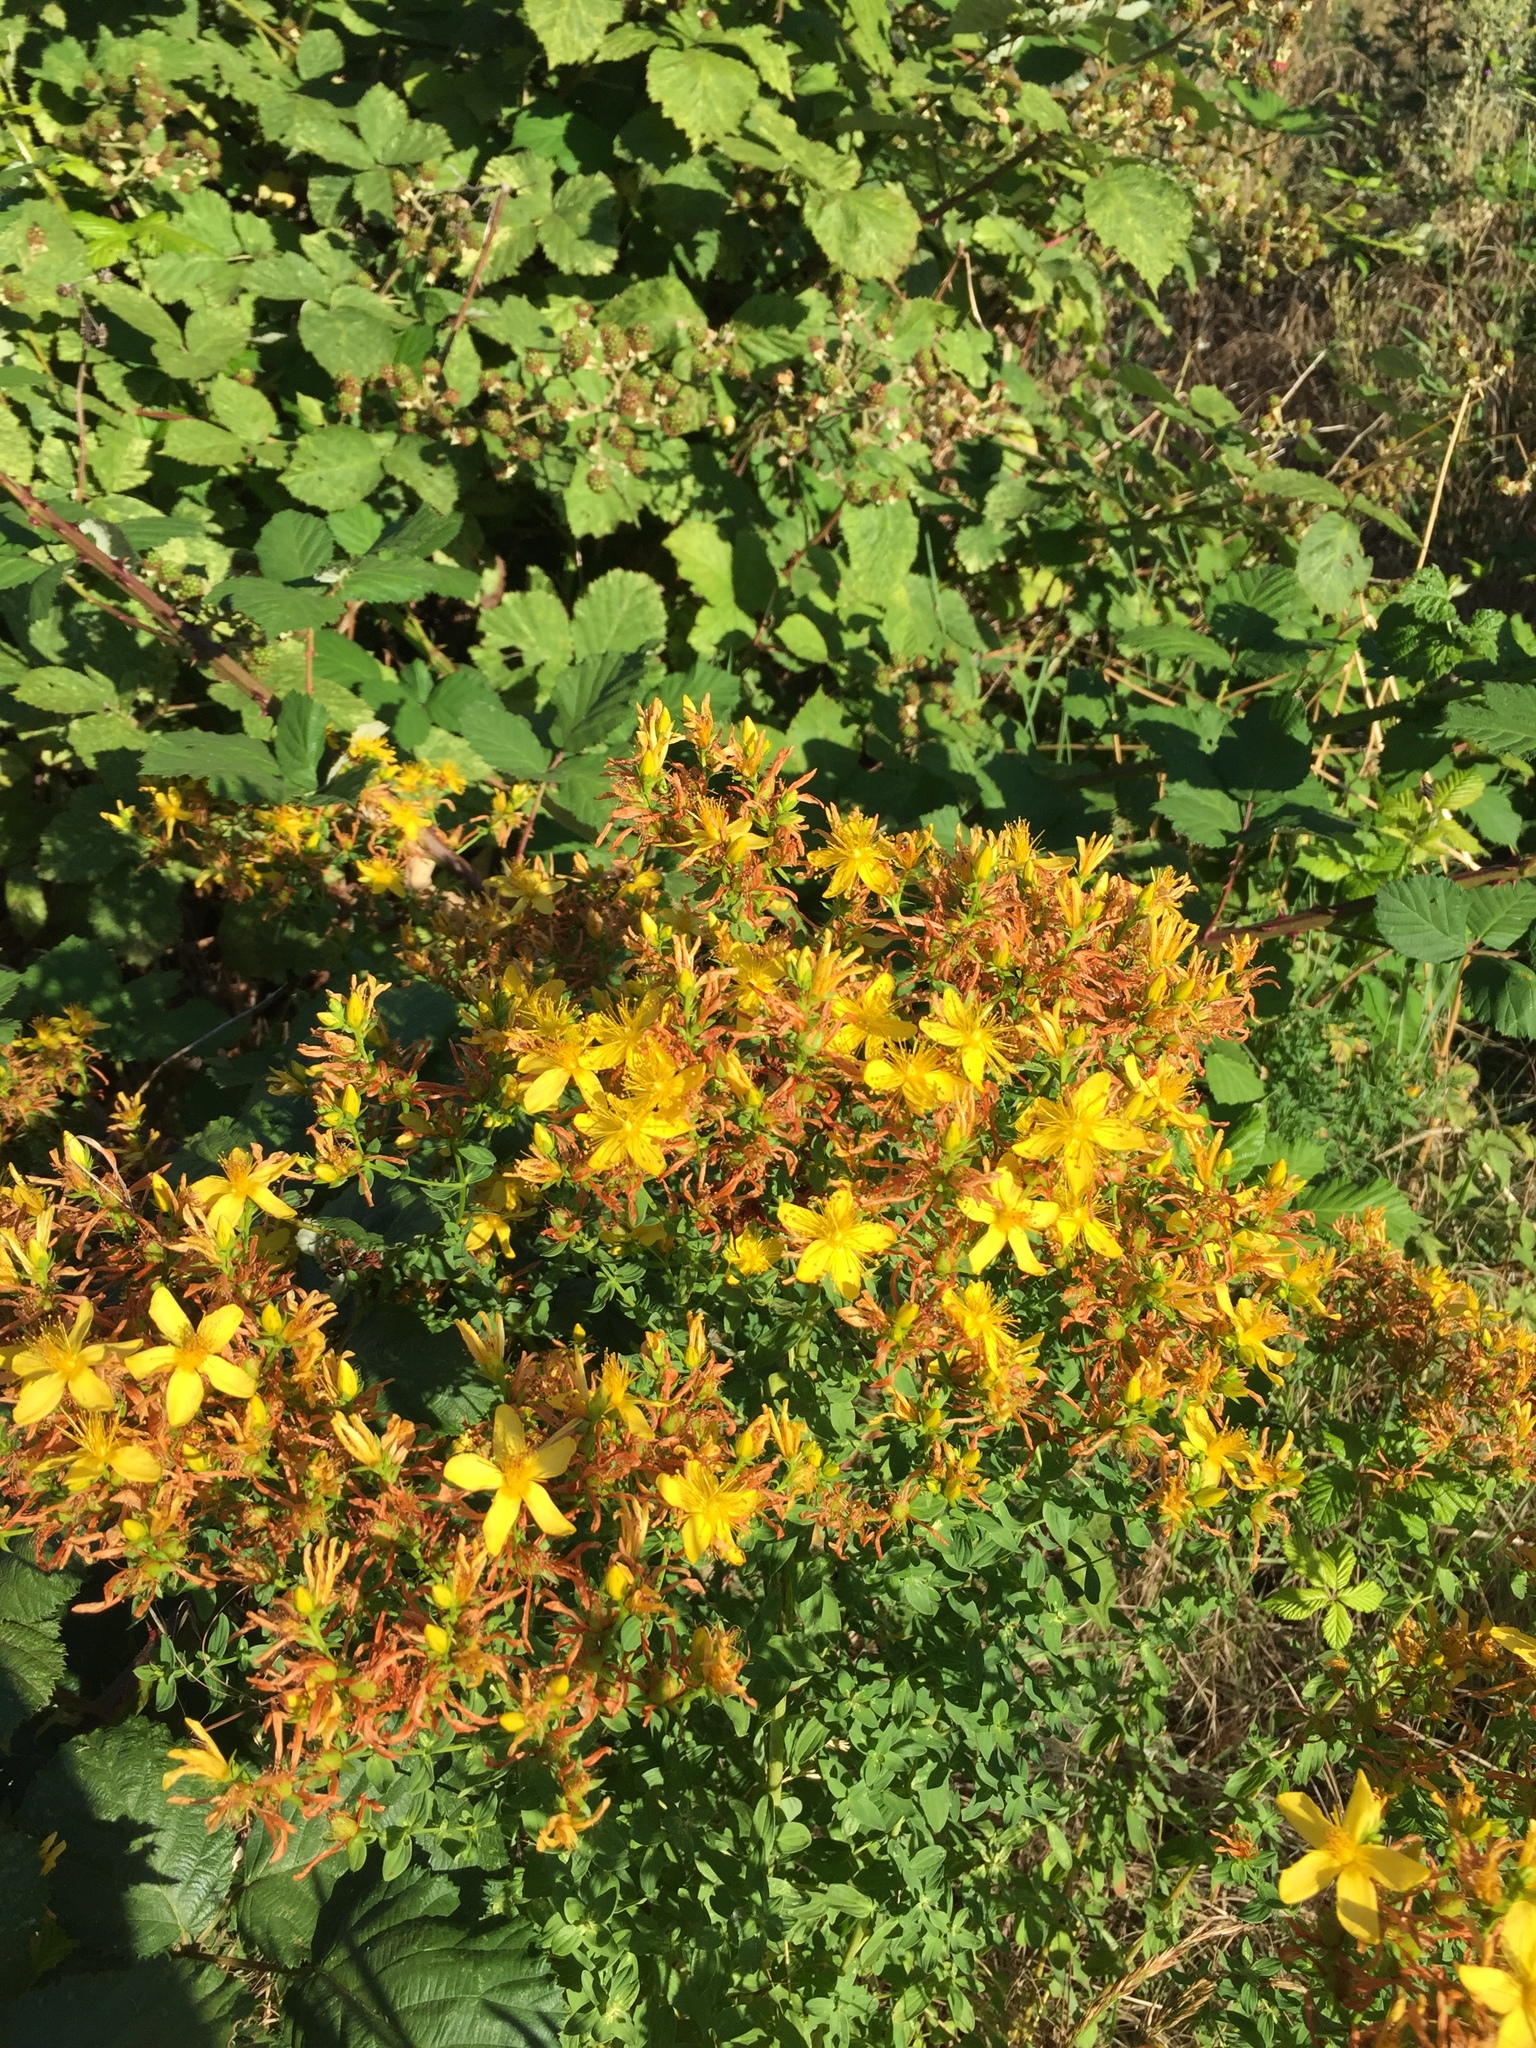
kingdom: Plantae
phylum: Tracheophyta
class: Magnoliopsida
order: Malpighiales
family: Hypericaceae
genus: Hypericum
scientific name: Hypericum perforatum
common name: Common st. johnswort
